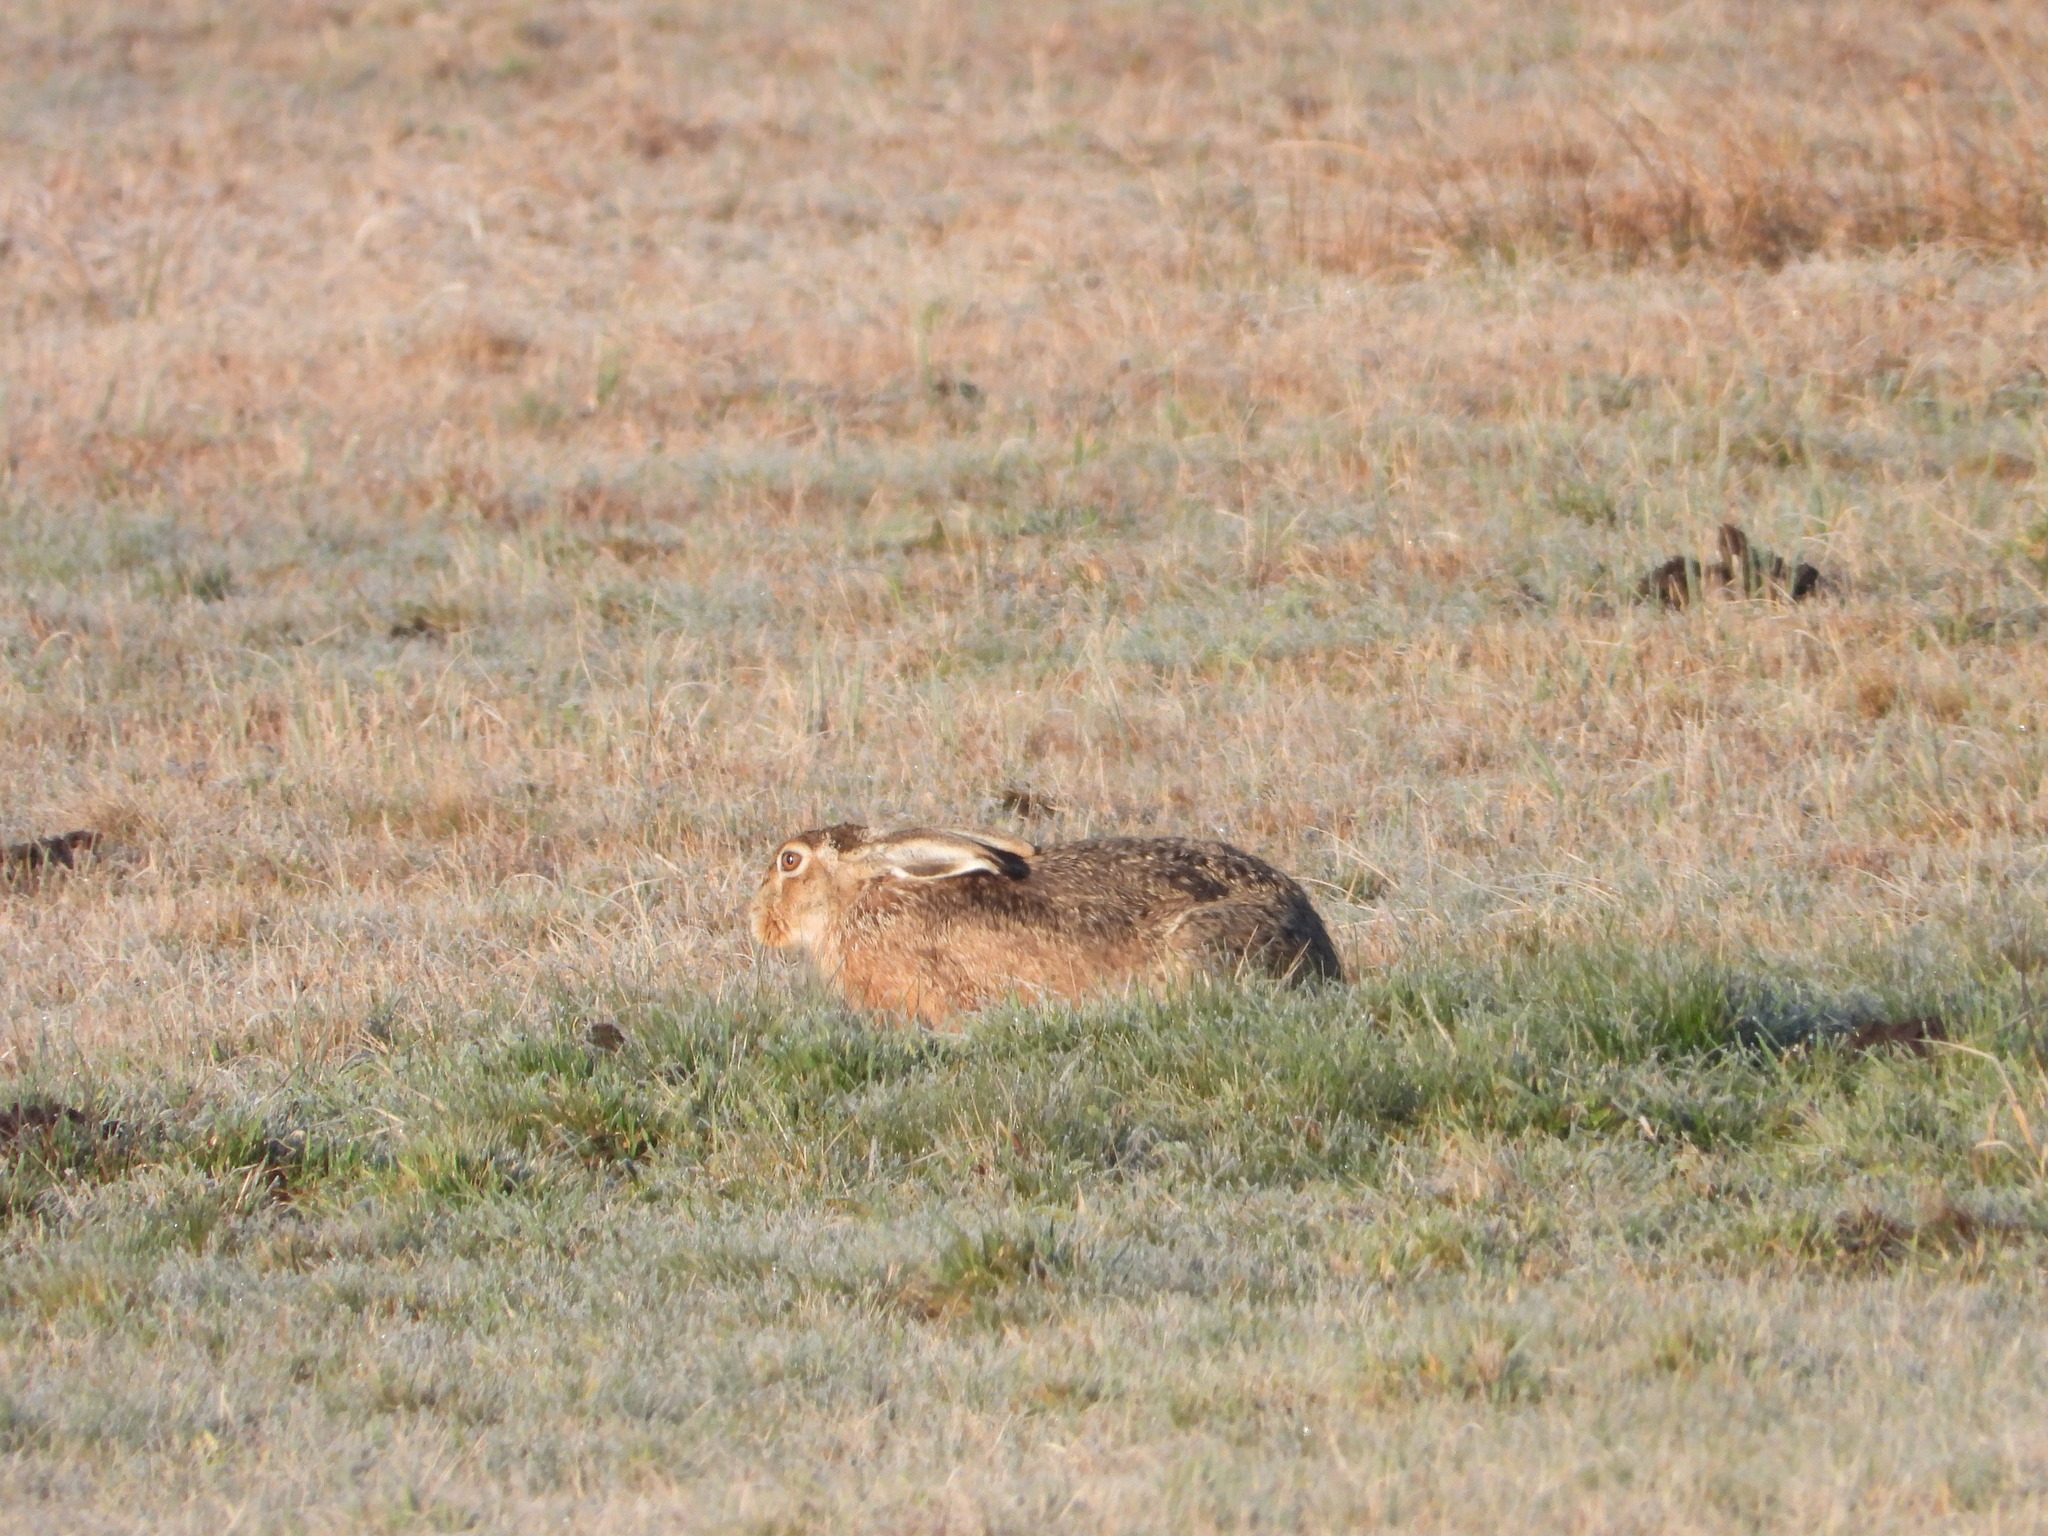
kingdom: Animalia
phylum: Chordata
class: Mammalia
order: Lagomorpha
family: Leporidae
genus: Lepus
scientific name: Lepus europaeus
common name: European hare
